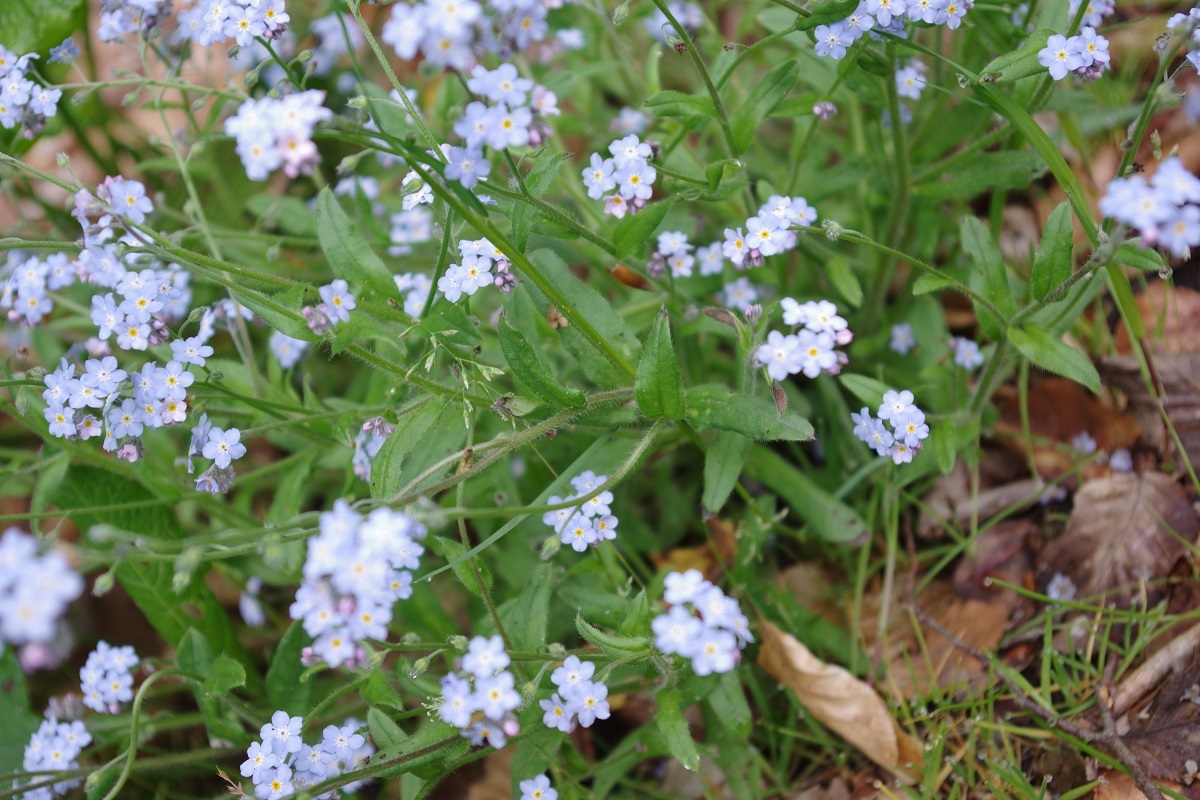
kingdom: Plantae
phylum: Tracheophyta
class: Magnoliopsida
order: Boraginales
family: Boraginaceae
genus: Myosotis
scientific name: Myosotis sylvatica
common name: Wood forget-me-not
